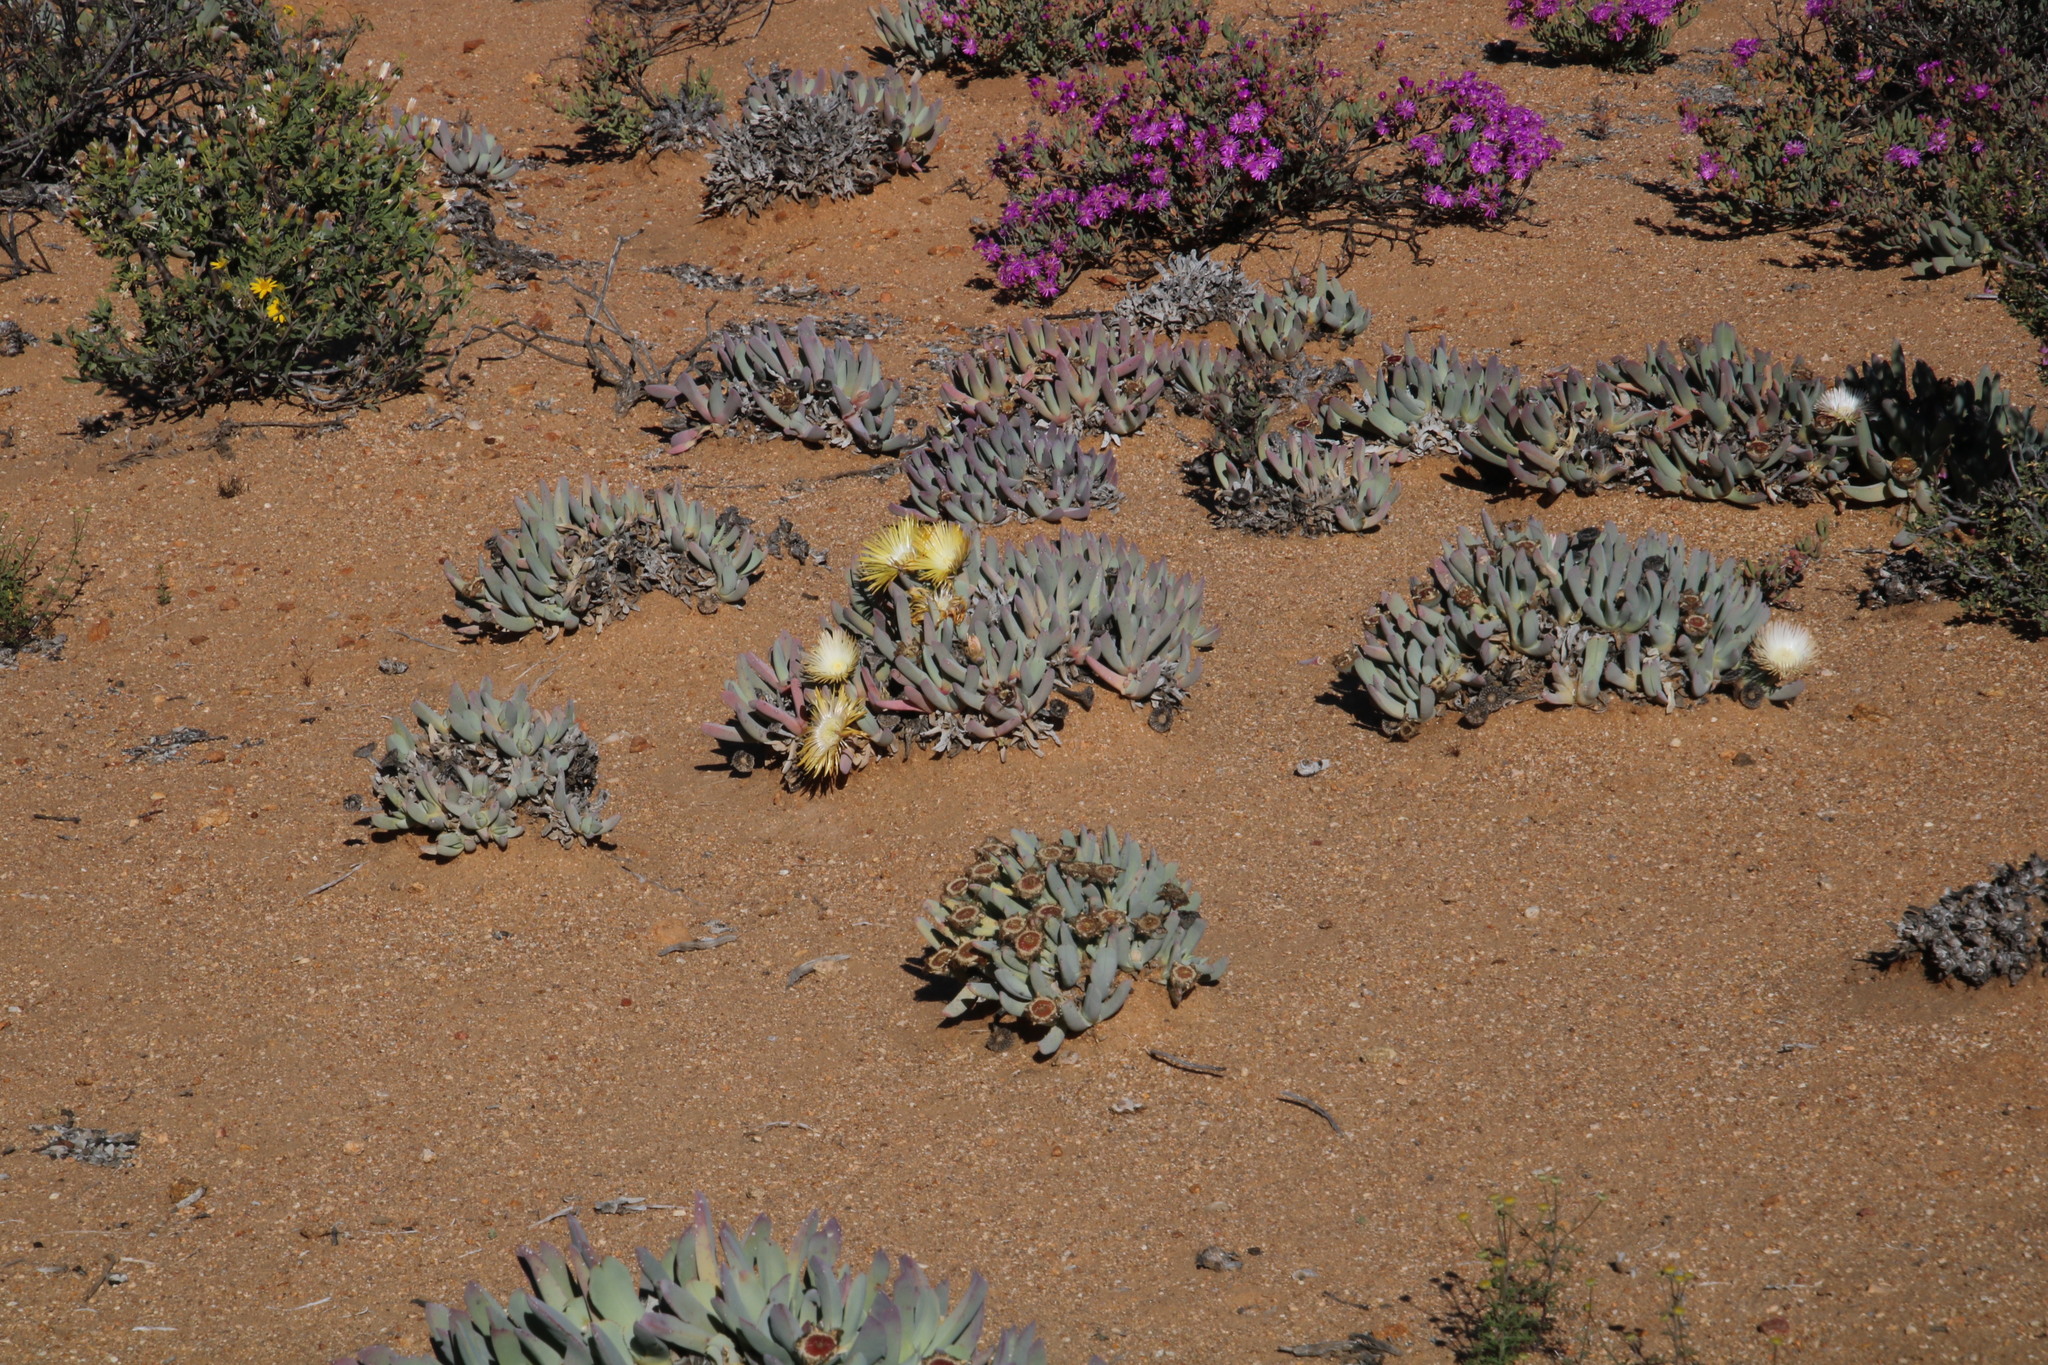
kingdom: Plantae
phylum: Tracheophyta
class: Magnoliopsida
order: Caryophyllales
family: Aizoaceae
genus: Cheiridopsis
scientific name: Cheiridopsis denticulata
